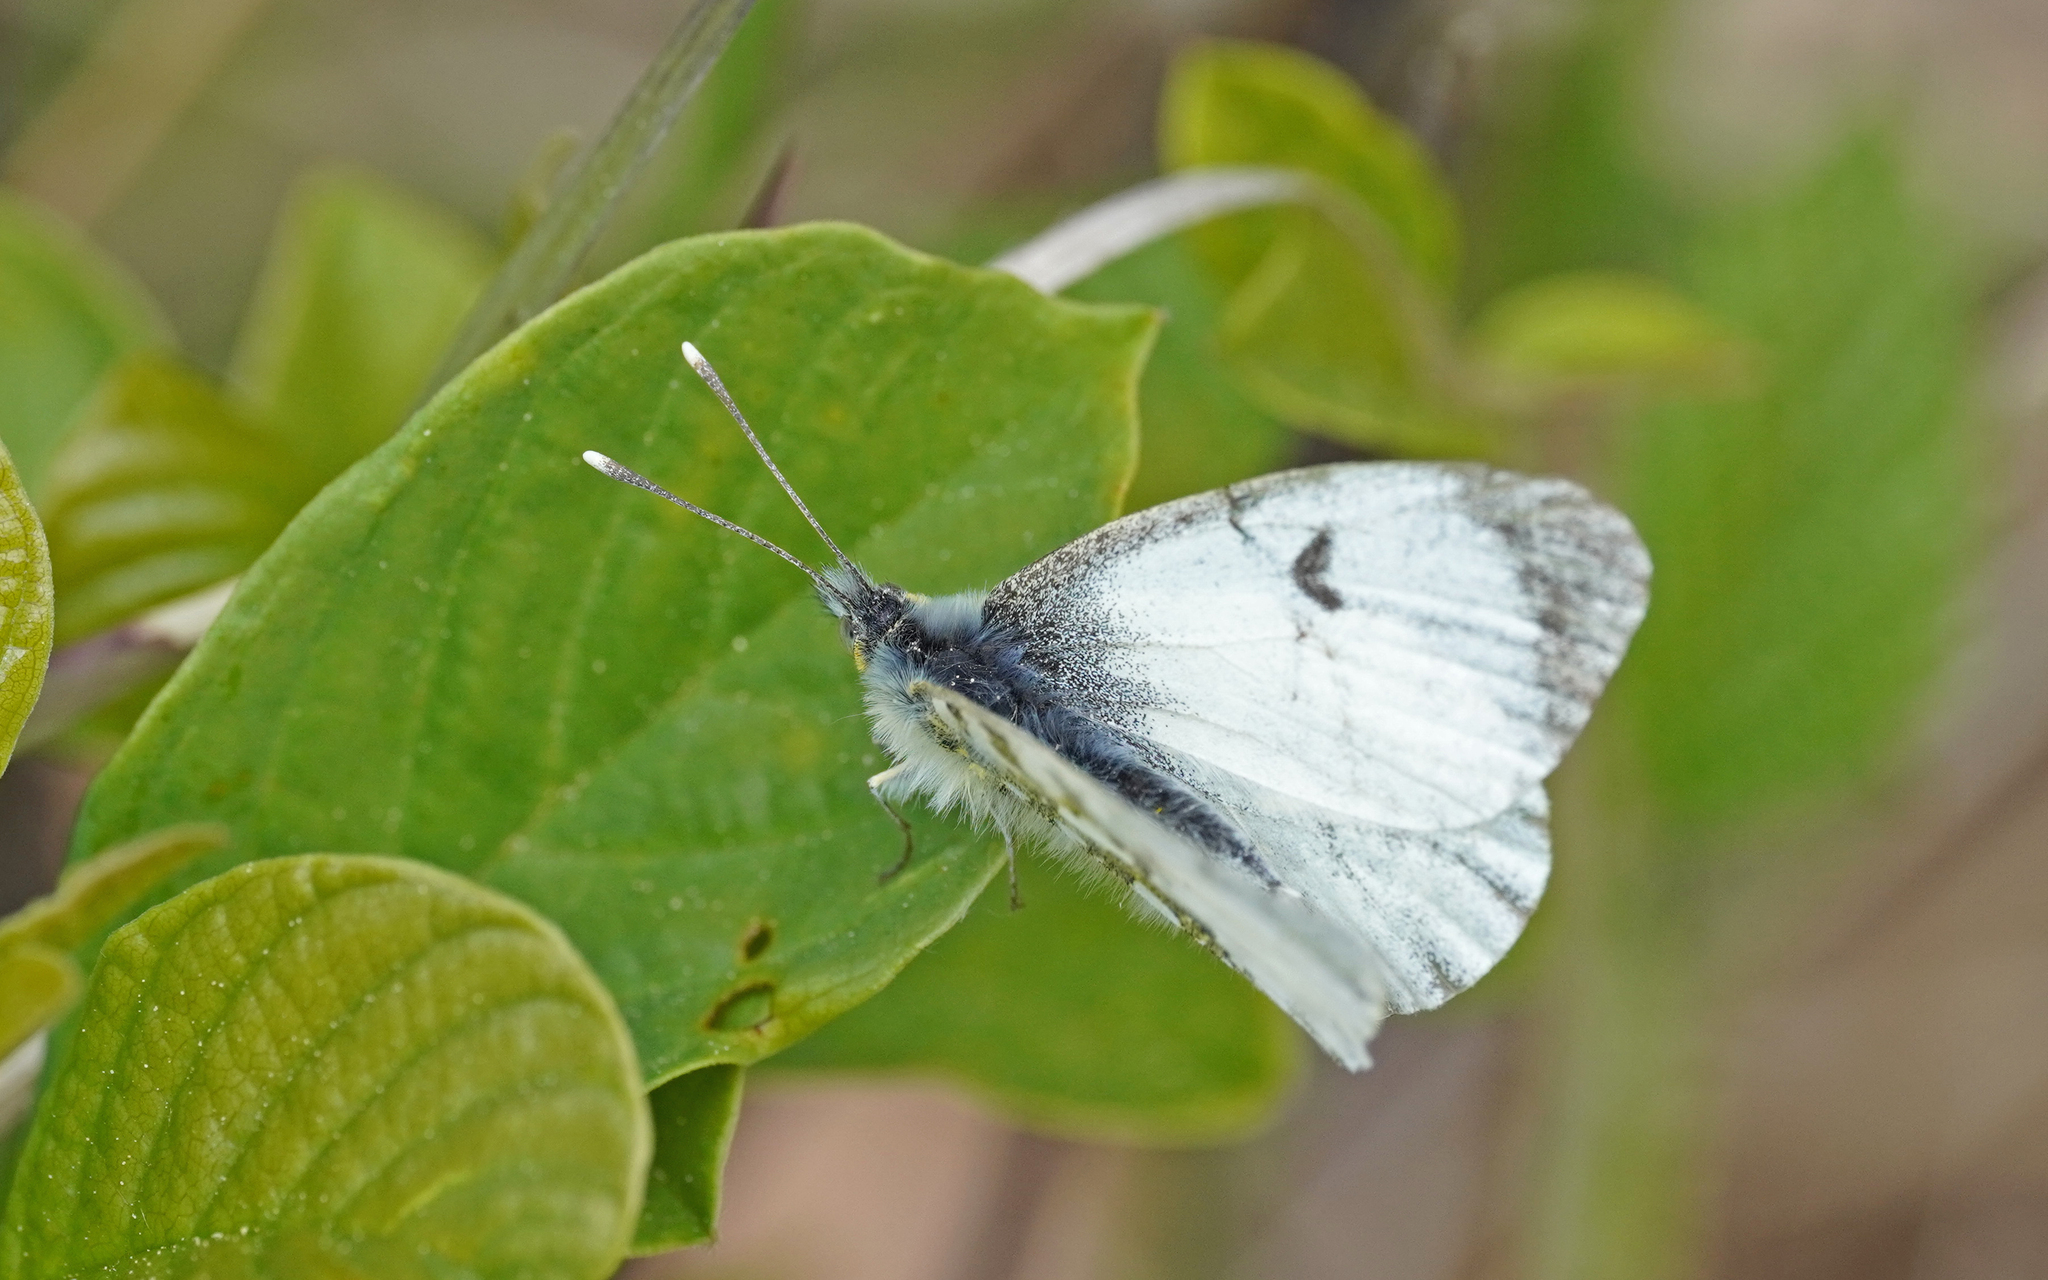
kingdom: Animalia
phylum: Arthropoda
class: Insecta
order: Lepidoptera
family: Pieridae
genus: Anthocharis
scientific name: Anthocharis cardamines
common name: Orange-tip
